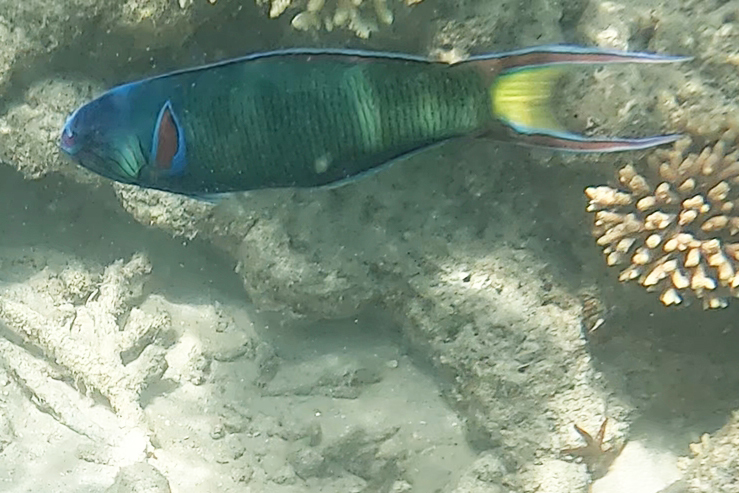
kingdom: Animalia
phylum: Chordata
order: Perciformes
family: Labridae
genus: Thalassoma
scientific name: Thalassoma lunare
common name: Blue wrasse
